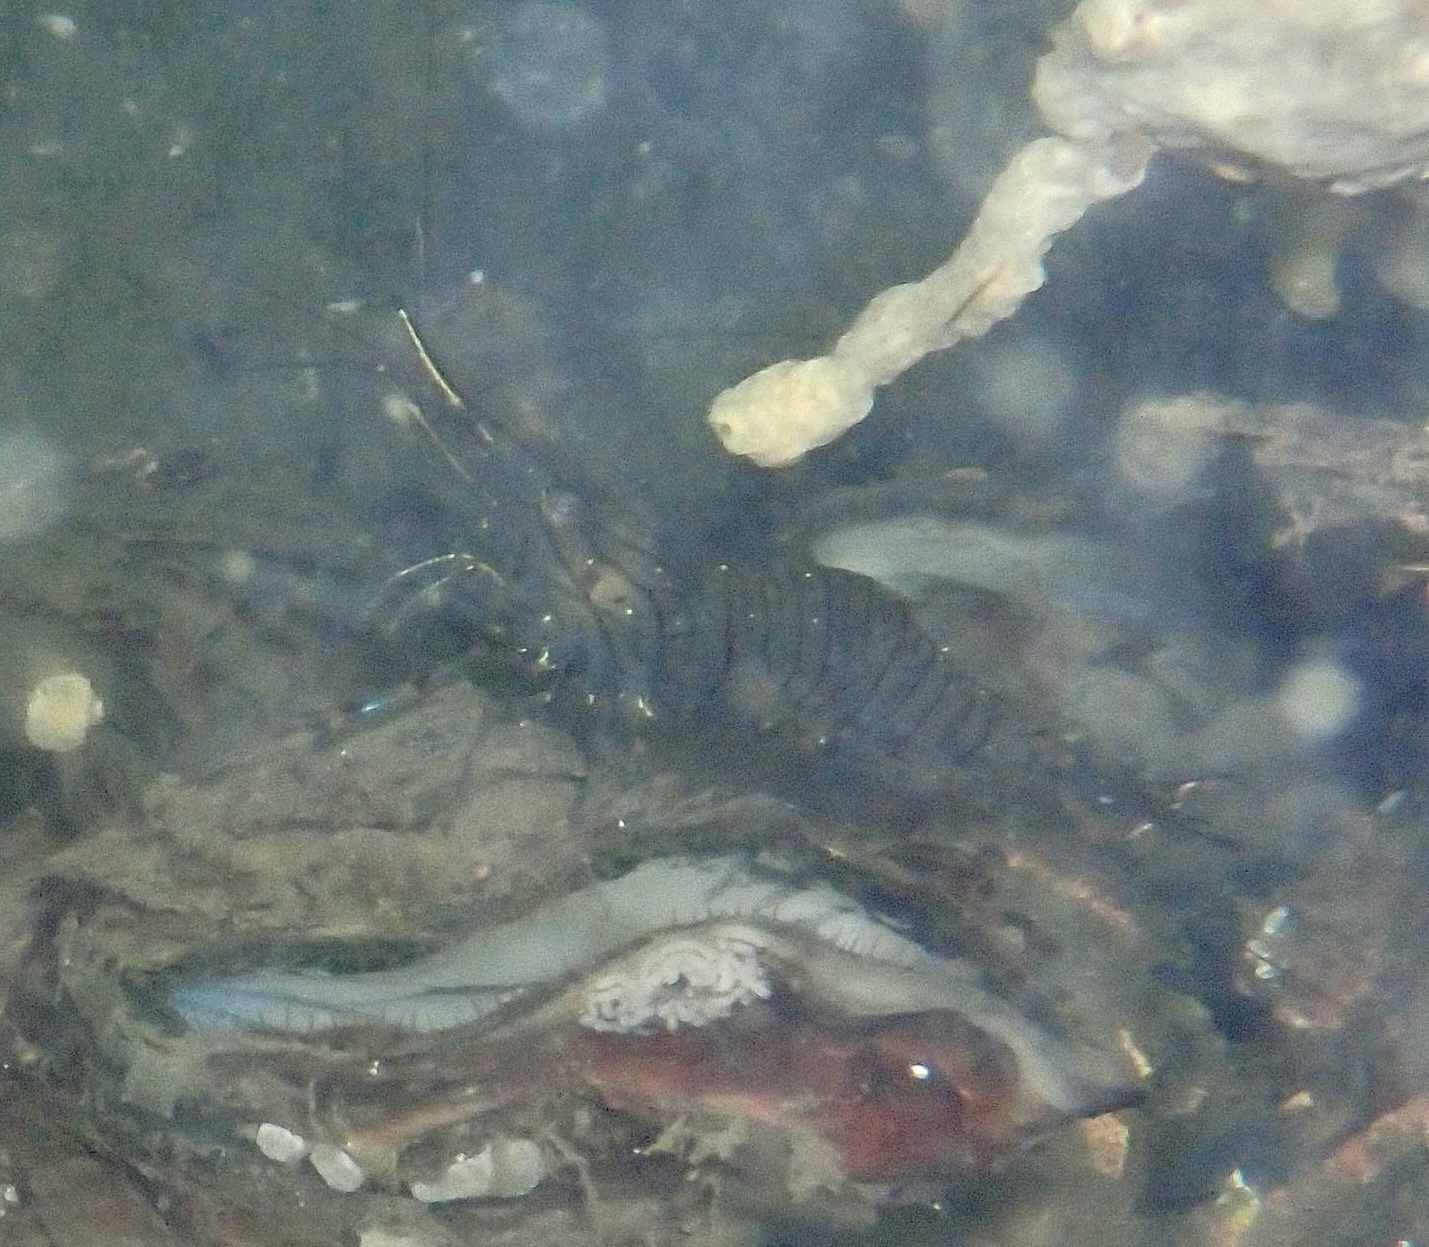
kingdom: Animalia
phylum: Arthropoda
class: Malacostraca
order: Decapoda
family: Palaemonidae
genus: Palaemon
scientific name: Palaemon serratus
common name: Common prawn
